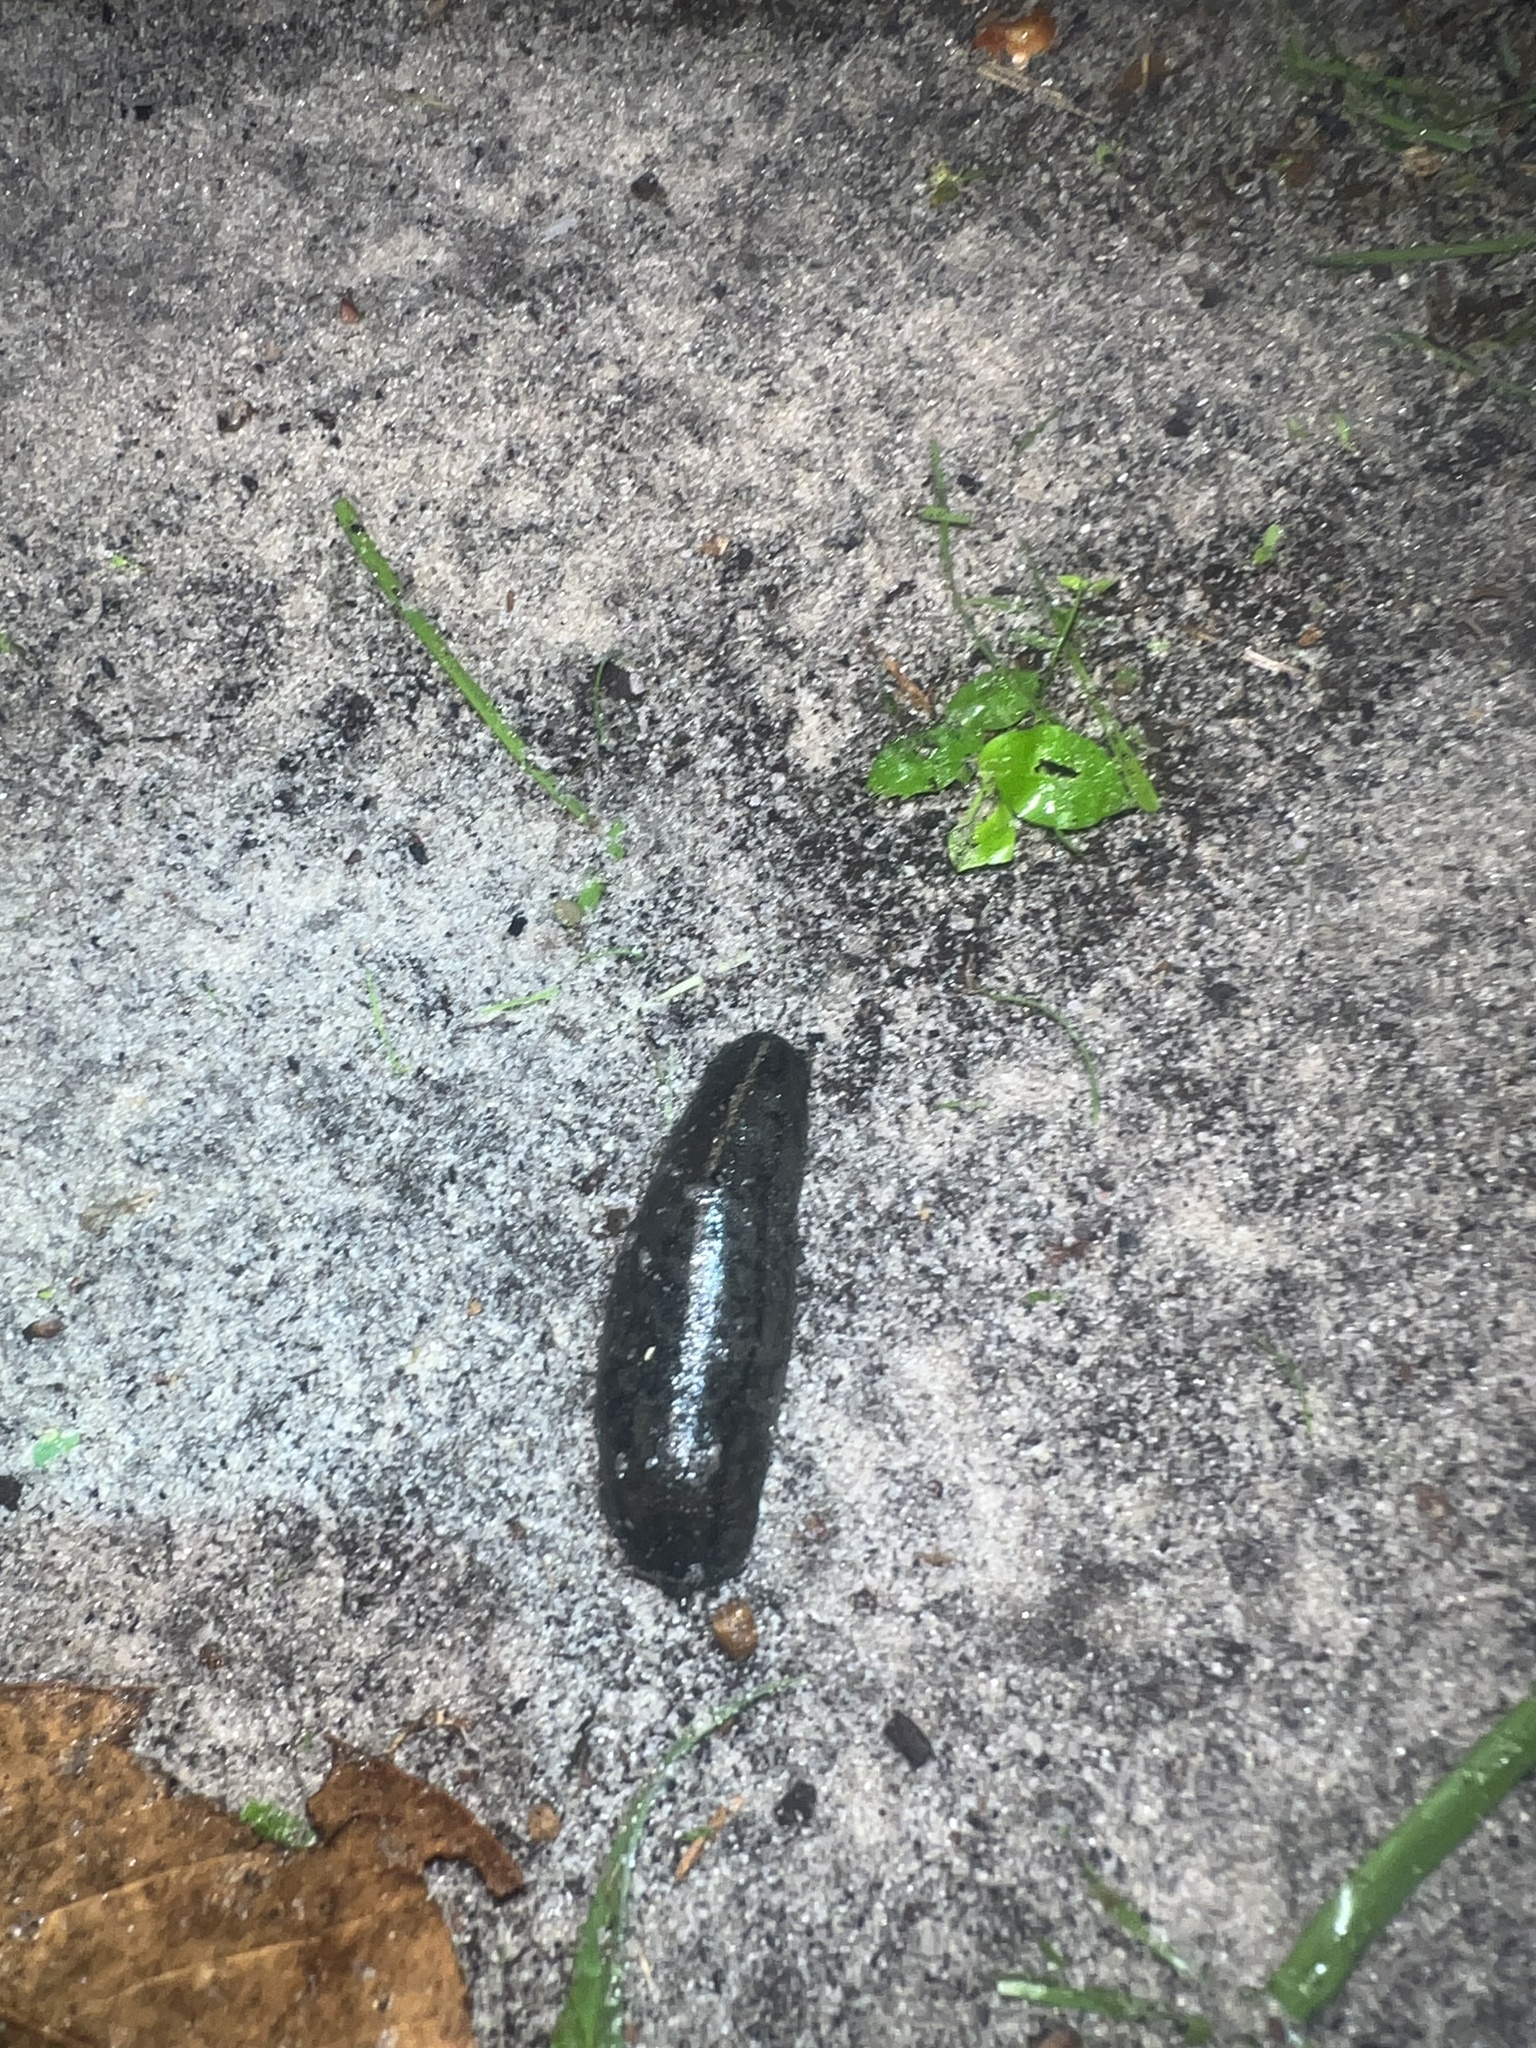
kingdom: Animalia
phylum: Mollusca
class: Gastropoda
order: Systellommatophora
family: Veronicellidae
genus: Leidyula
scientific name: Leidyula floridana
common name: Florida leatherleaf
